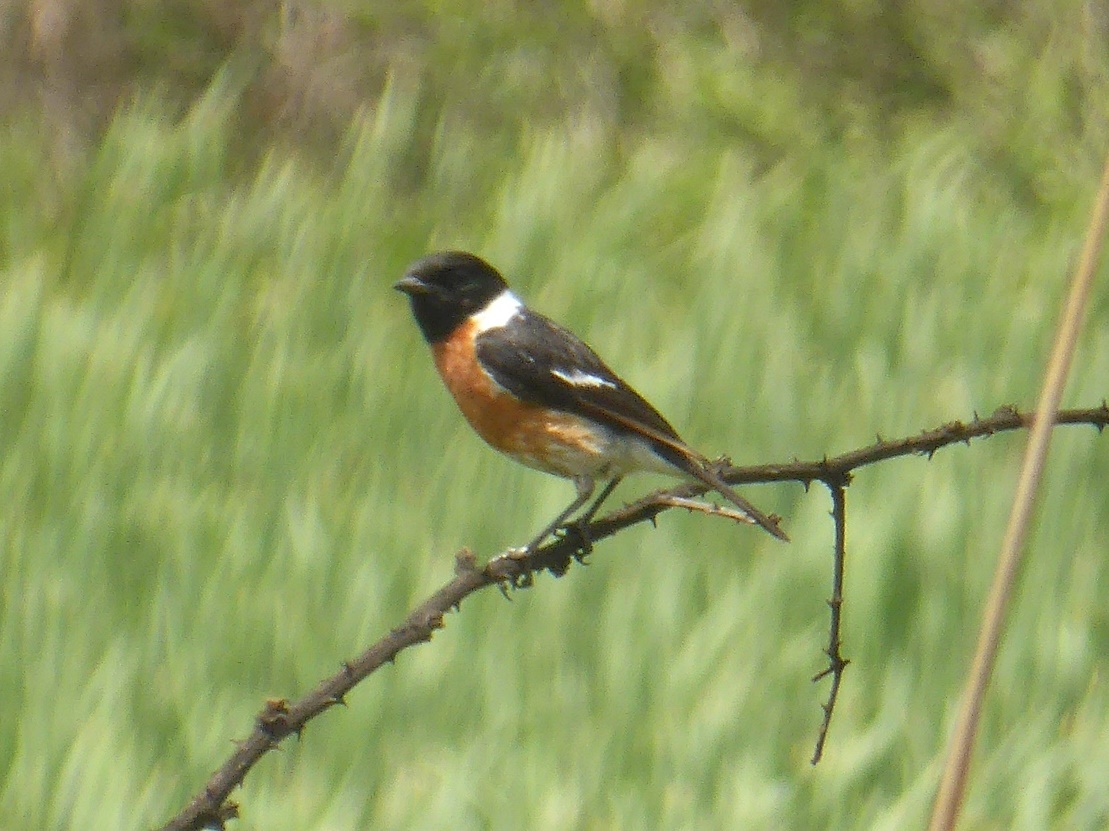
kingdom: Animalia
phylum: Chordata
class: Aves
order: Passeriformes
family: Muscicapidae
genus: Saxicola
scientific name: Saxicola torquatus
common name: African stonechat
